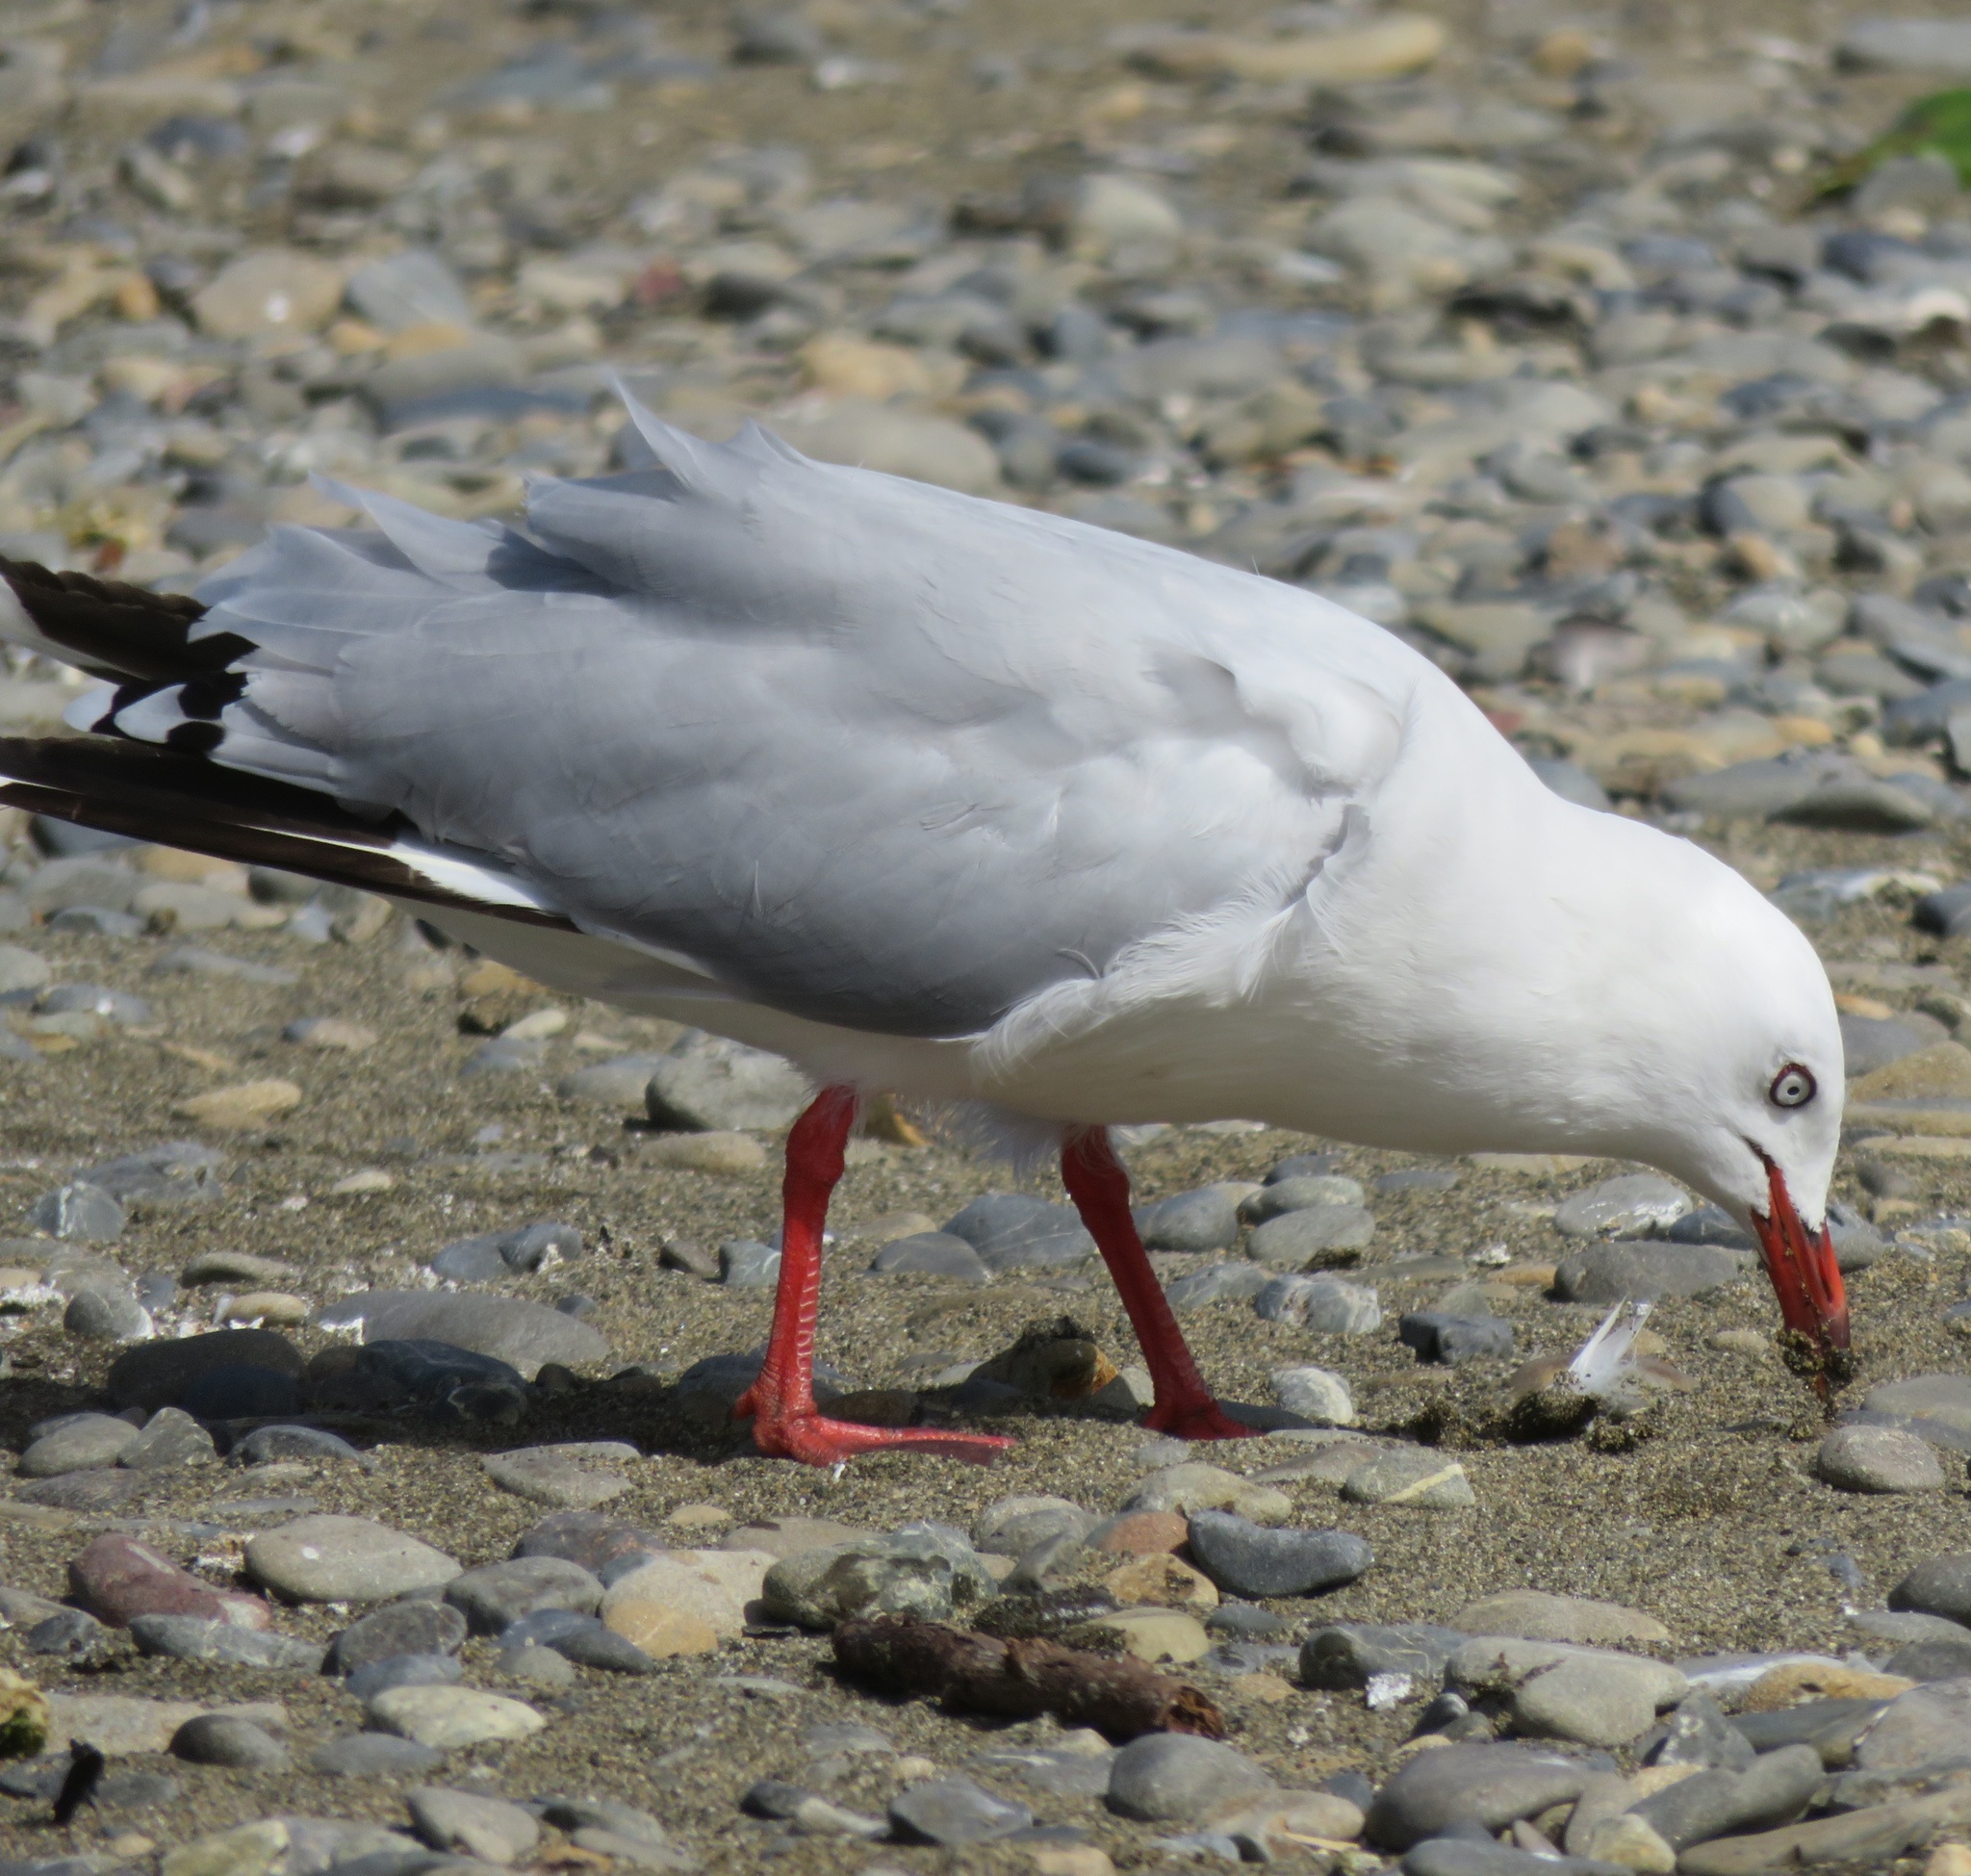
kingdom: Animalia
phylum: Chordata
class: Aves
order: Charadriiformes
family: Laridae
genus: Chroicocephalus
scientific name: Chroicocephalus novaehollandiae
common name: Silver gull
